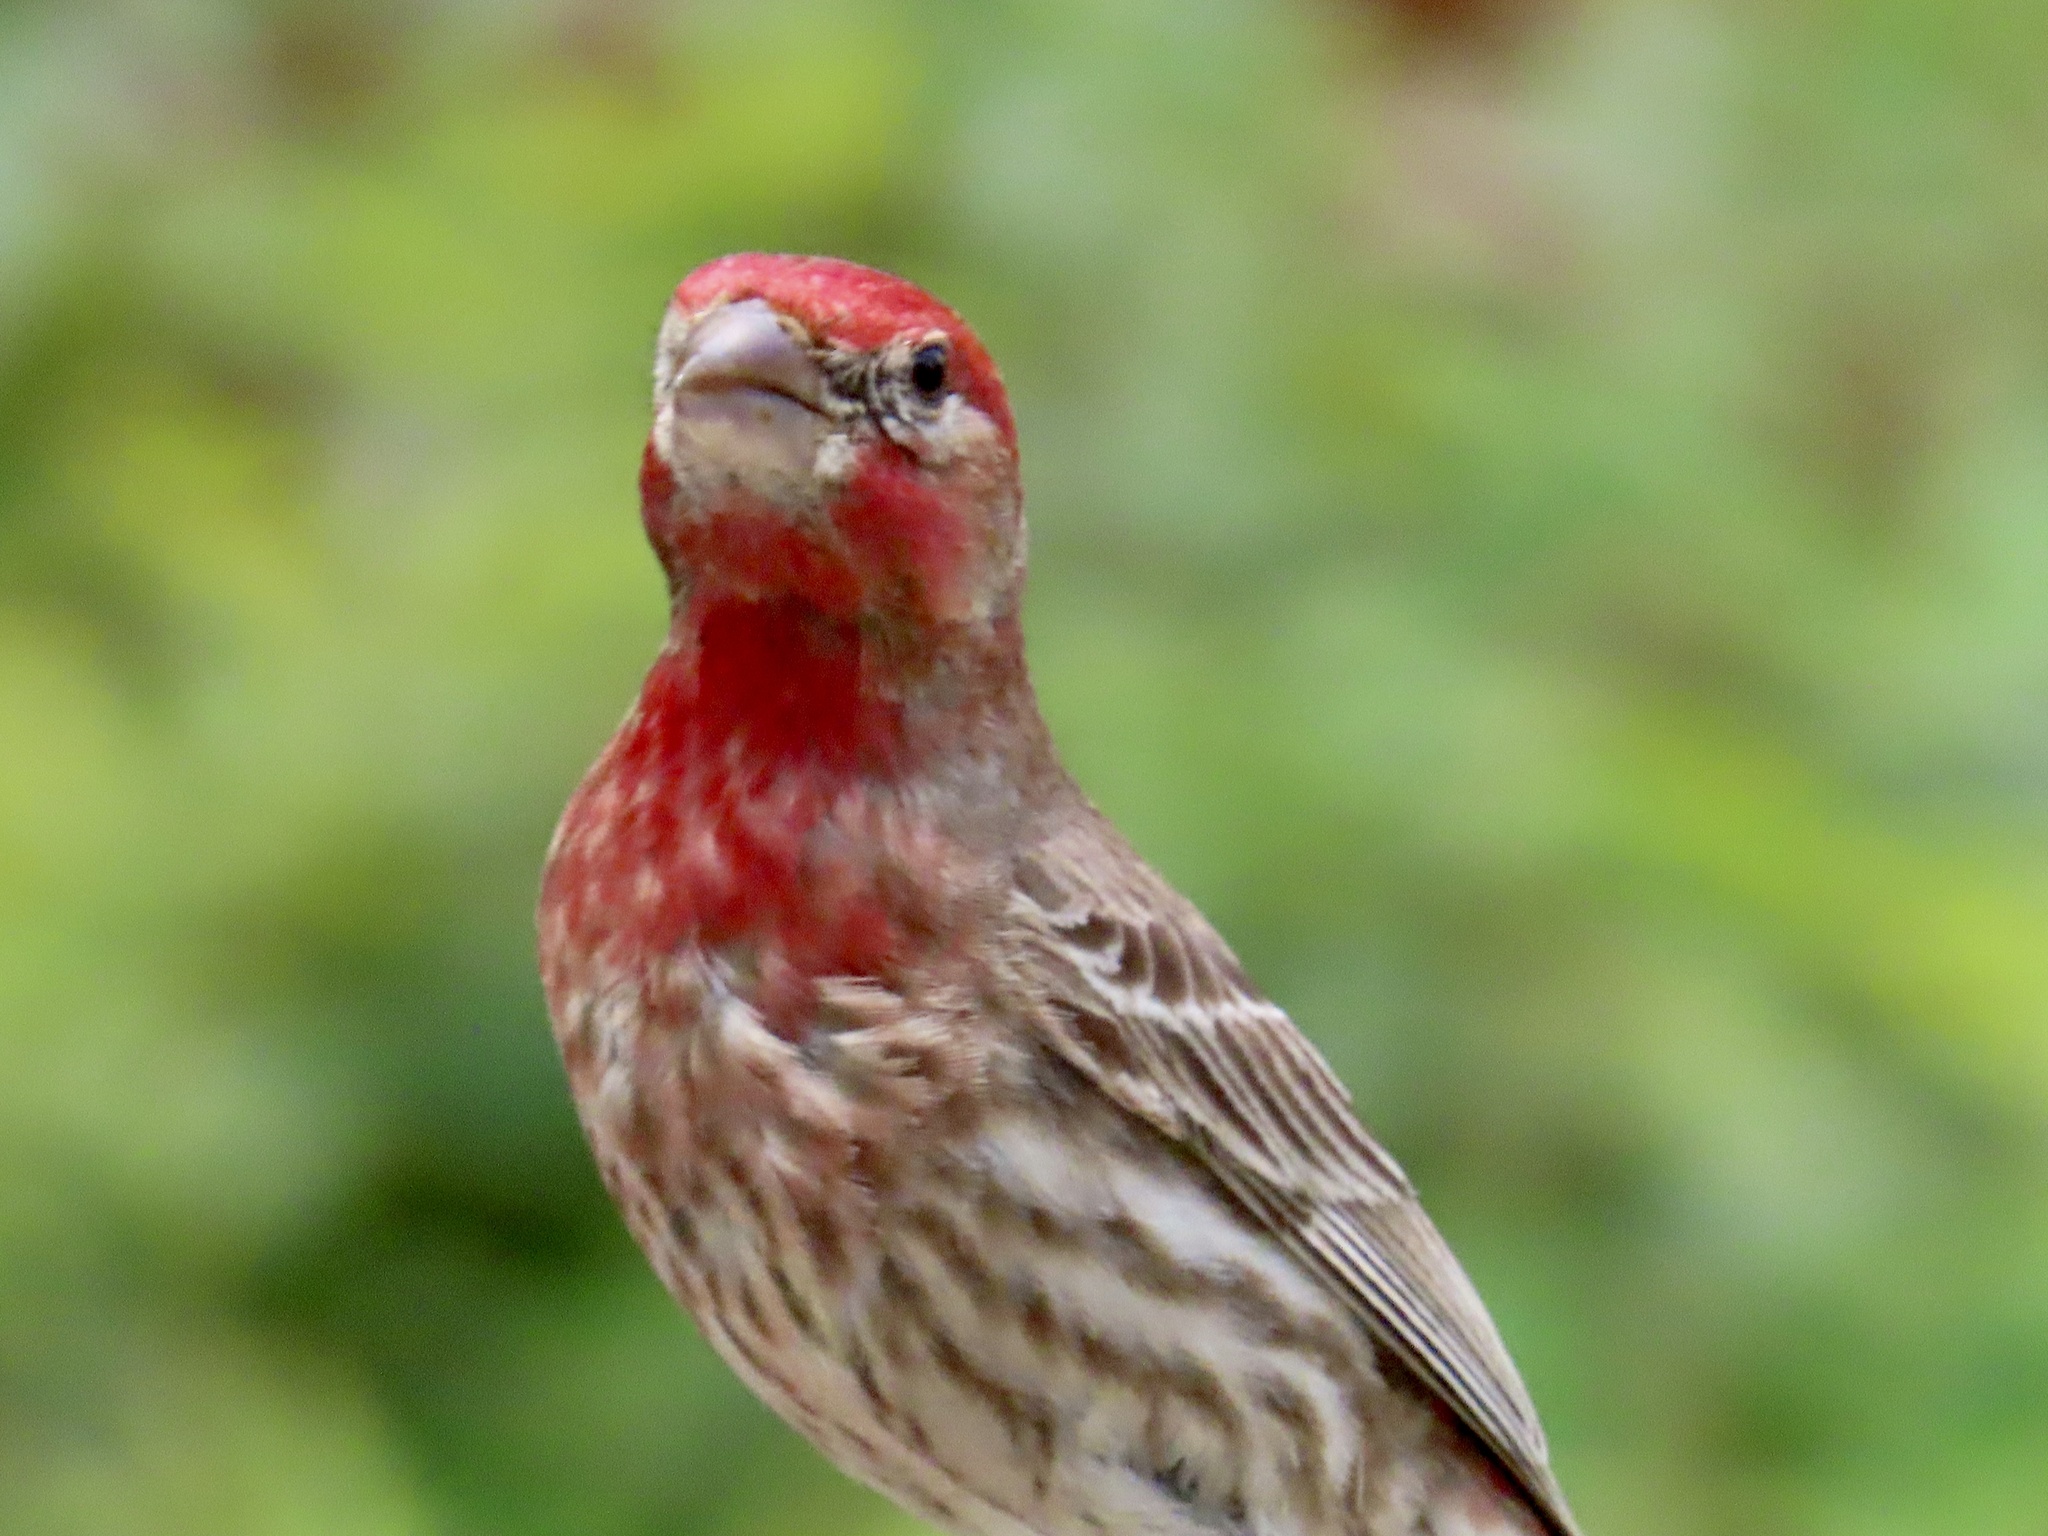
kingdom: Animalia
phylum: Chordata
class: Aves
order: Passeriformes
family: Fringillidae
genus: Haemorhous
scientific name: Haemorhous mexicanus
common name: House finch
